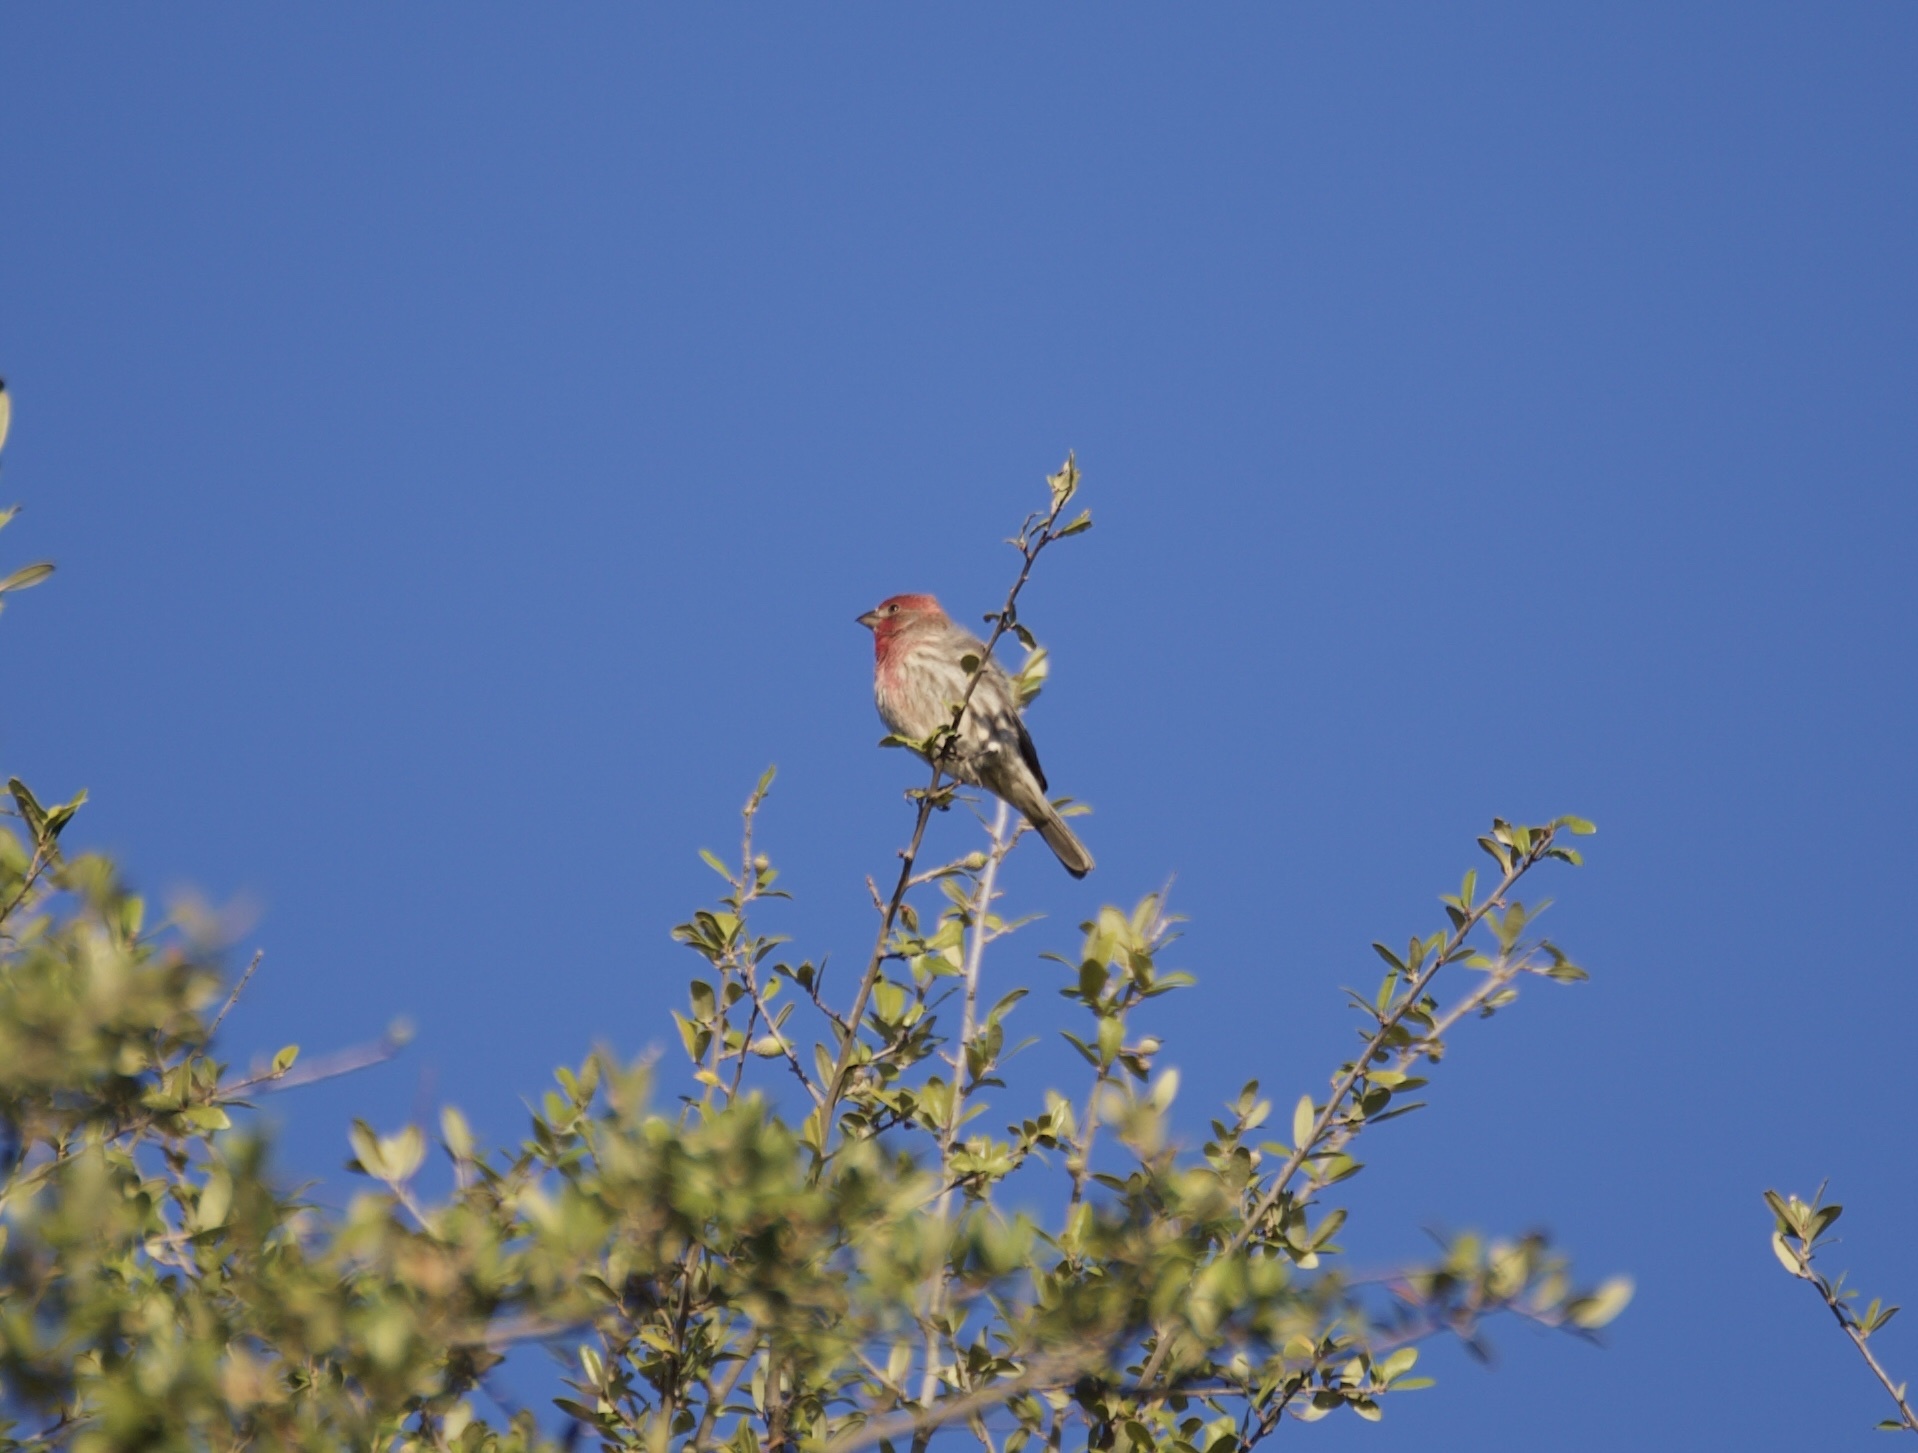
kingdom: Animalia
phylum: Chordata
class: Aves
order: Passeriformes
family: Fringillidae
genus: Haemorhous
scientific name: Haemorhous mexicanus
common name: House finch
